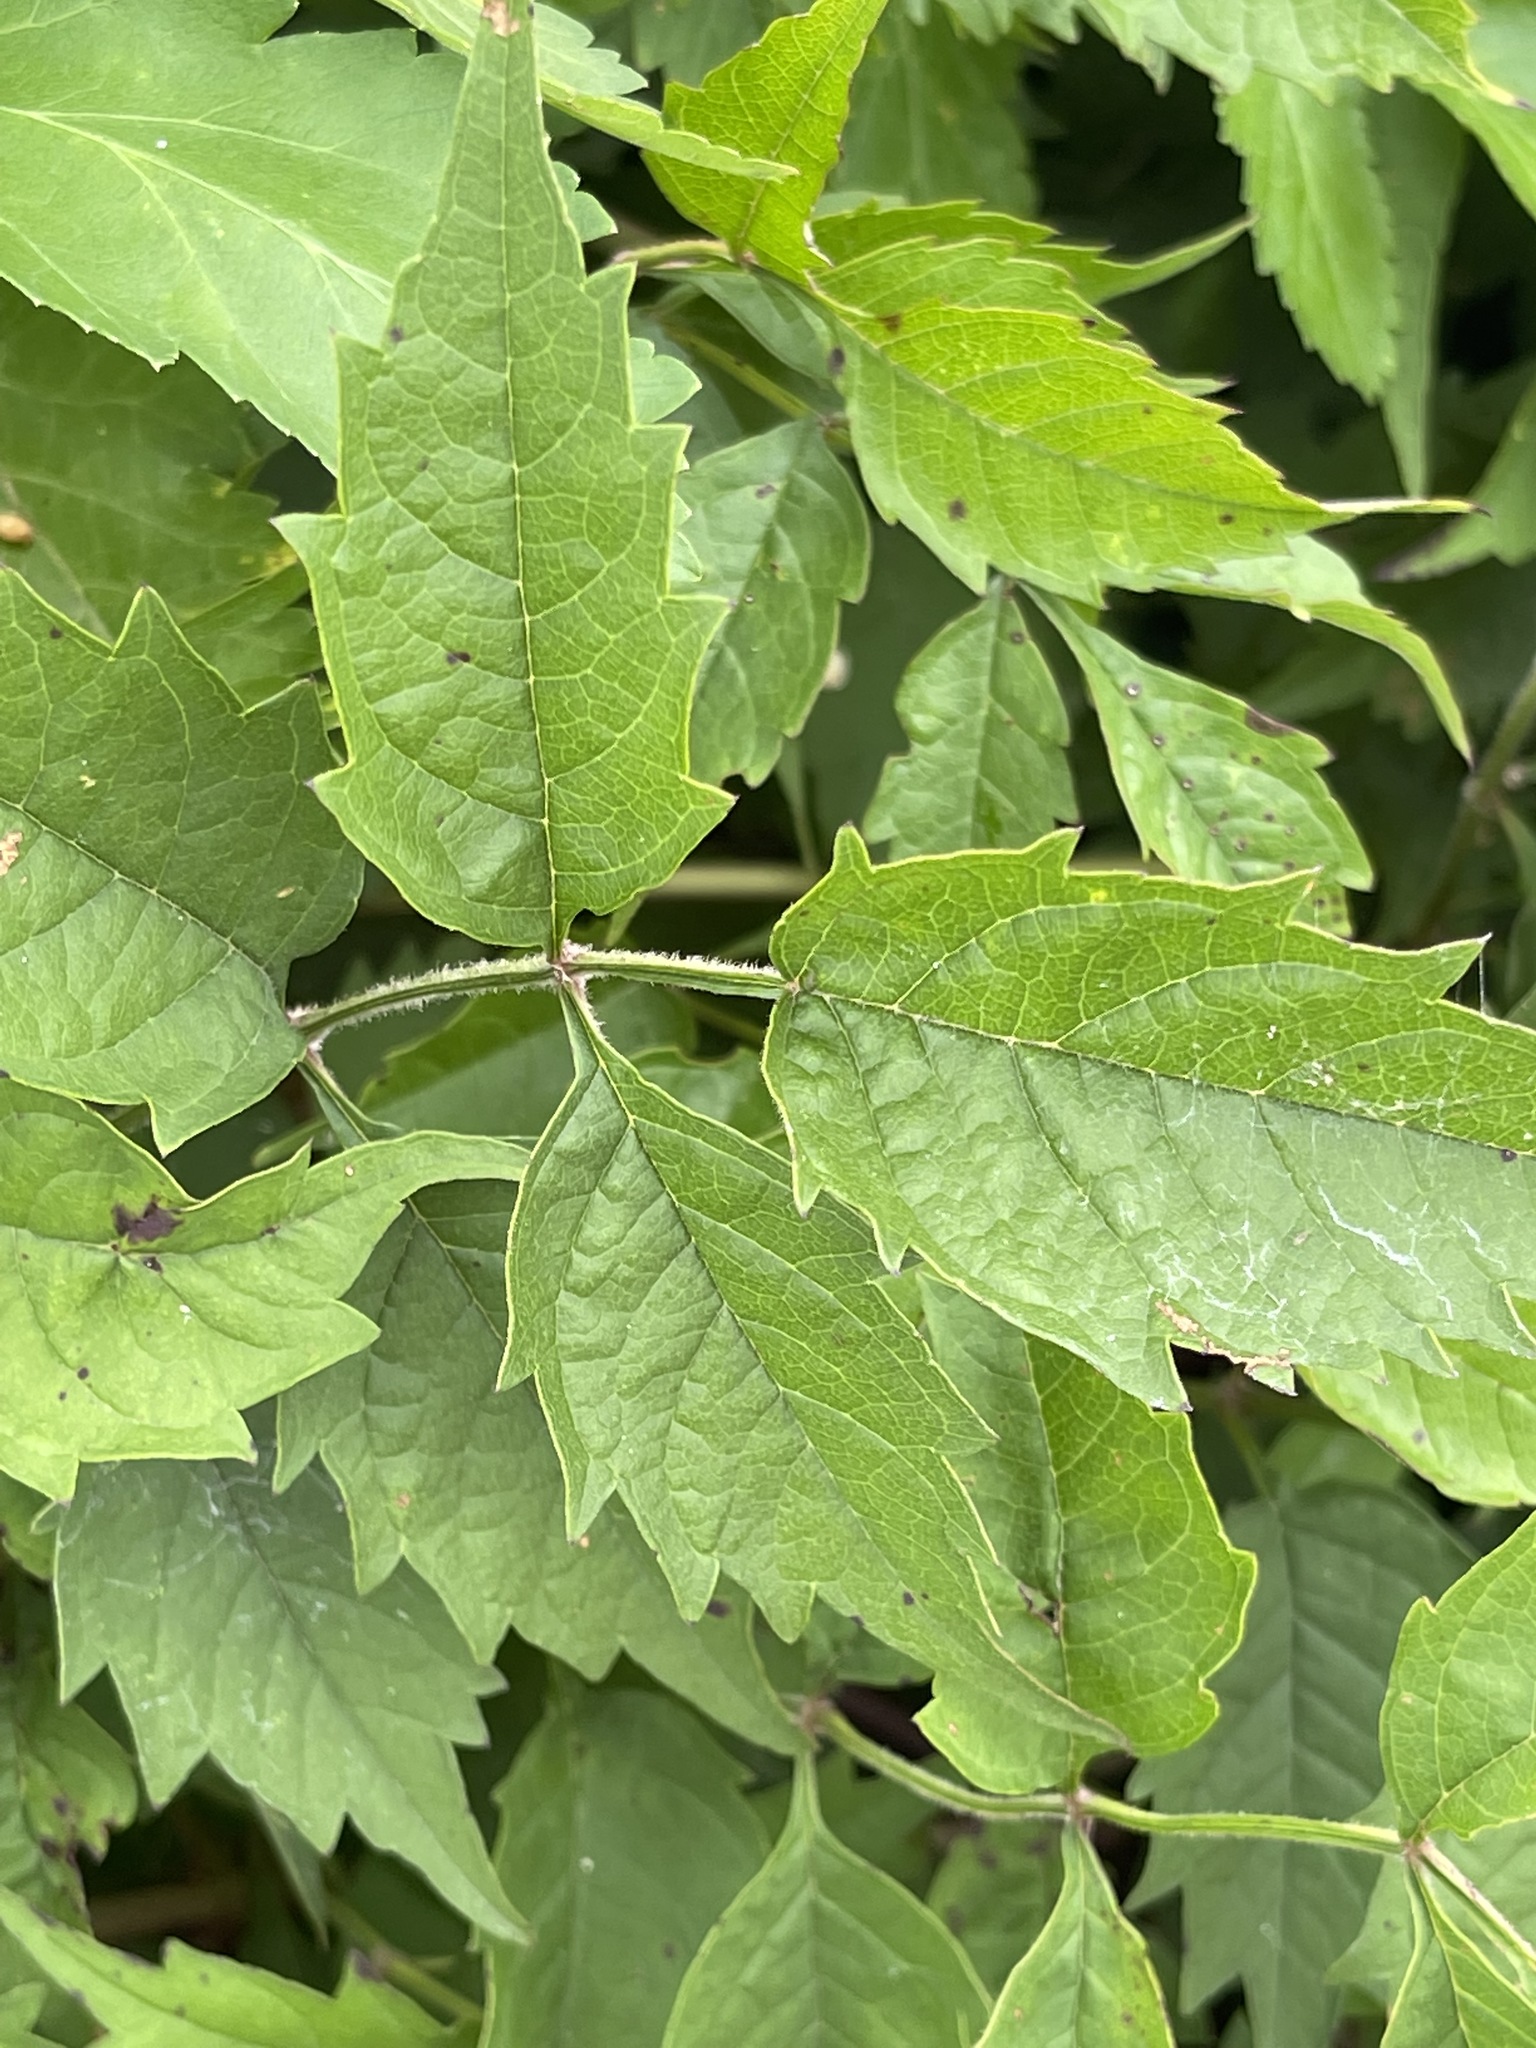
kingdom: Plantae
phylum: Tracheophyta
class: Magnoliopsida
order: Lamiales
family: Bignoniaceae
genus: Campsis
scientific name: Campsis radicans
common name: Trumpet-creeper
